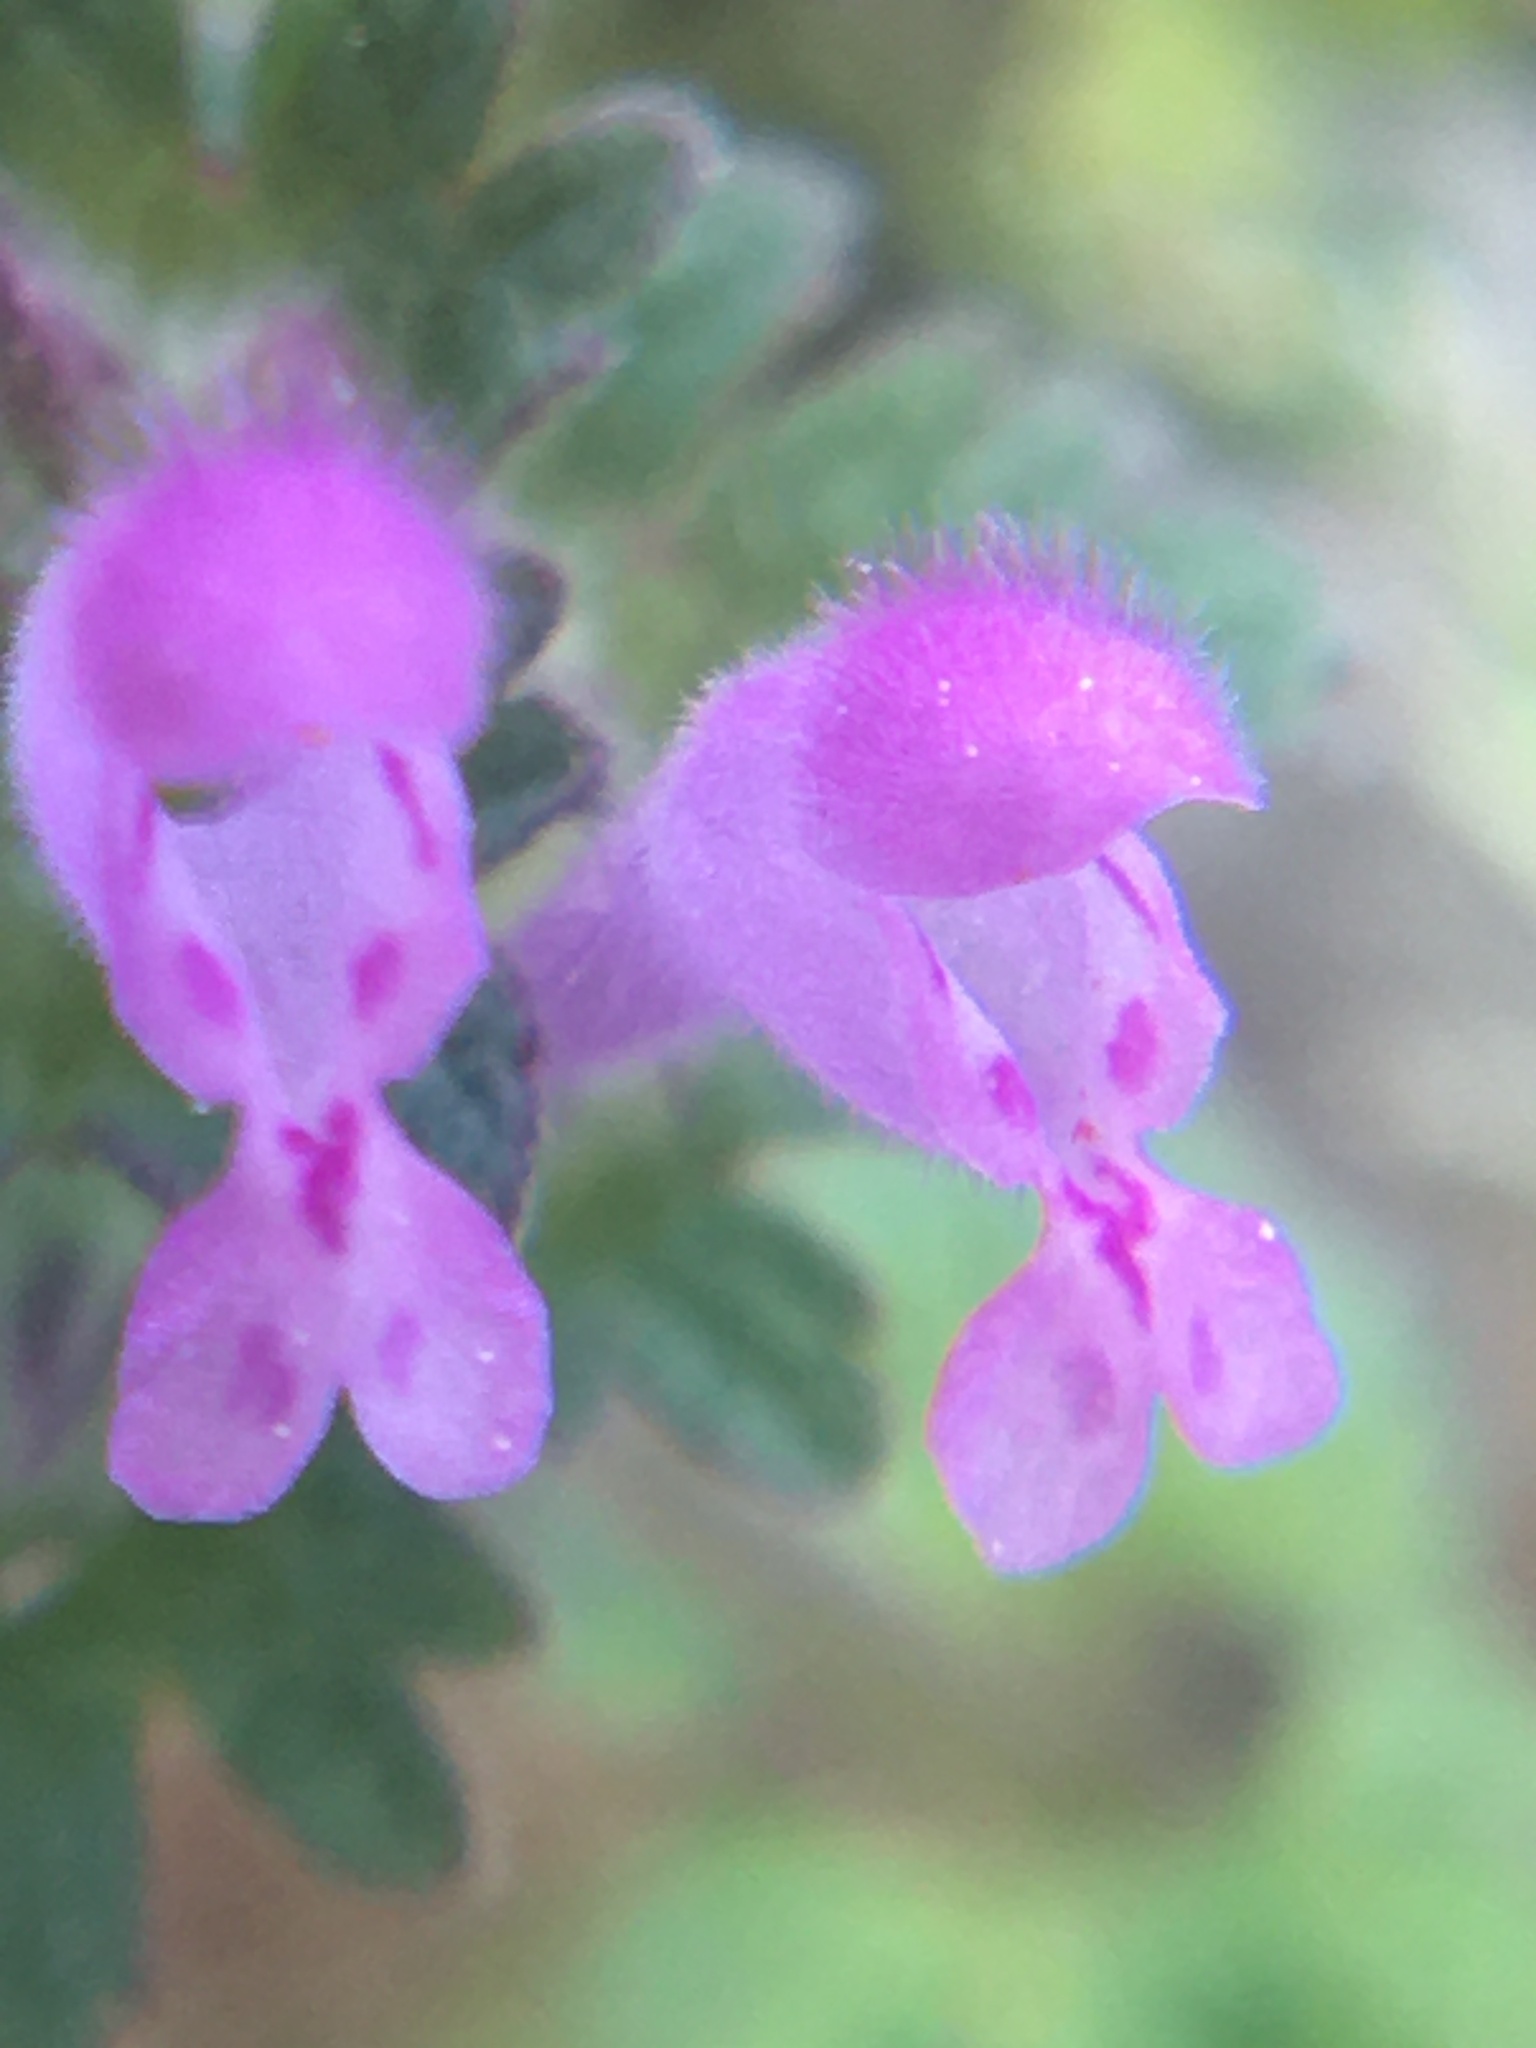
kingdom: Plantae
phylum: Tracheophyta
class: Magnoliopsida
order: Lamiales
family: Lamiaceae
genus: Lamium
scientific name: Lamium amplexicaule
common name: Henbit dead-nettle
